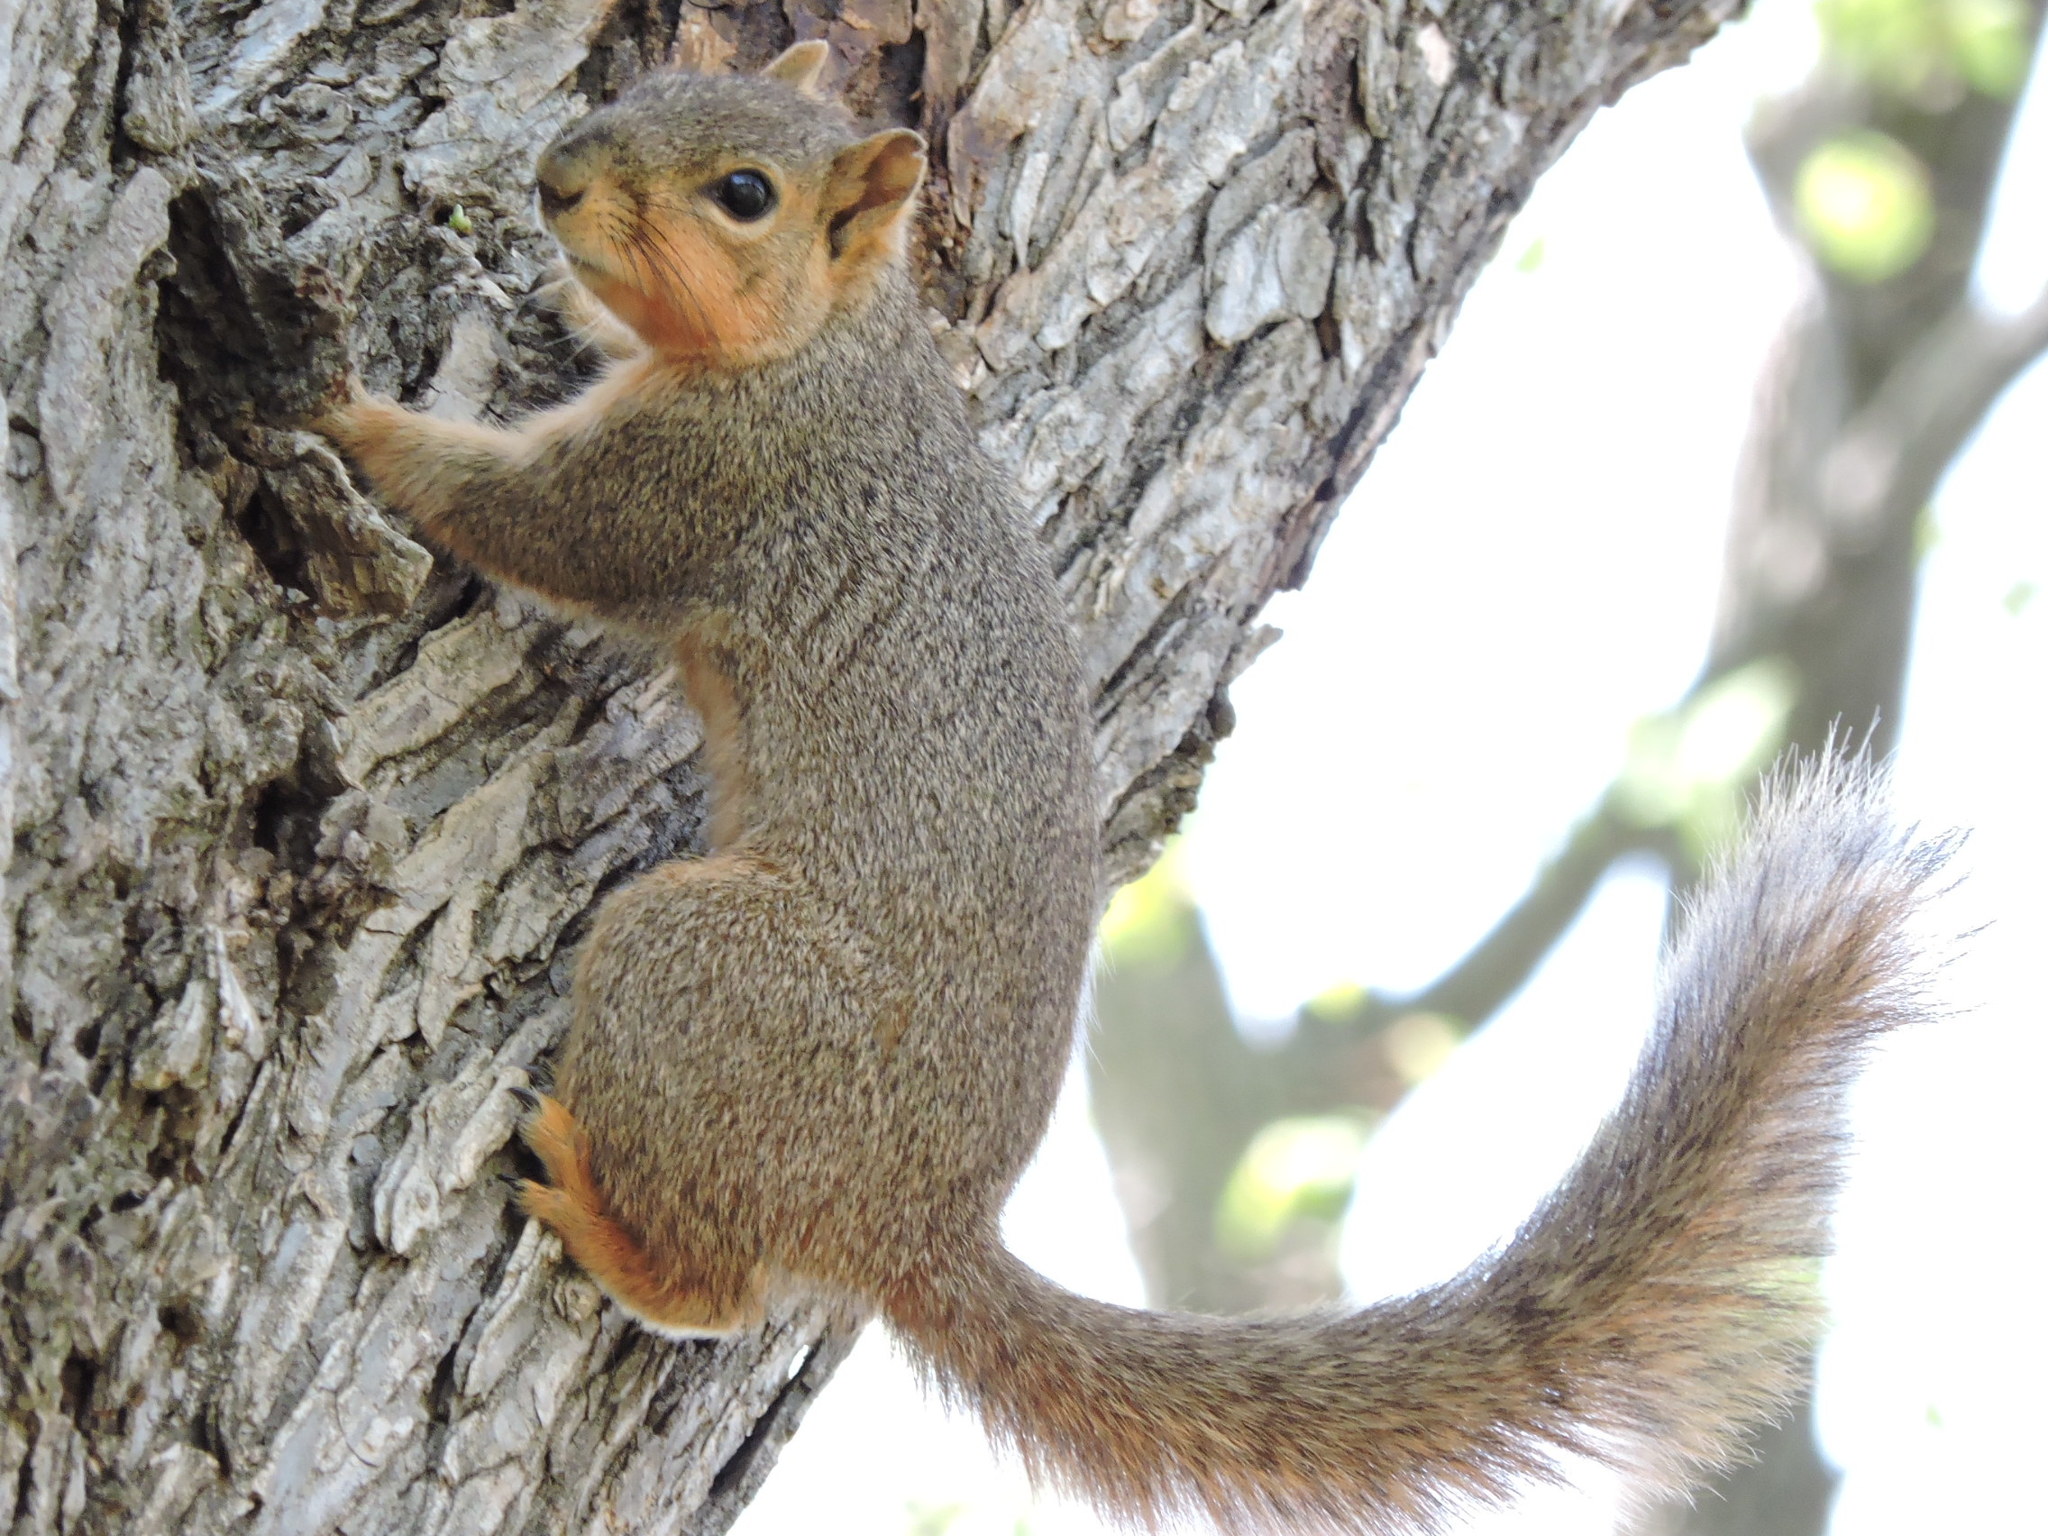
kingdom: Animalia
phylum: Chordata
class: Mammalia
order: Rodentia
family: Sciuridae
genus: Sciurus
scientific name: Sciurus niger
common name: Fox squirrel
